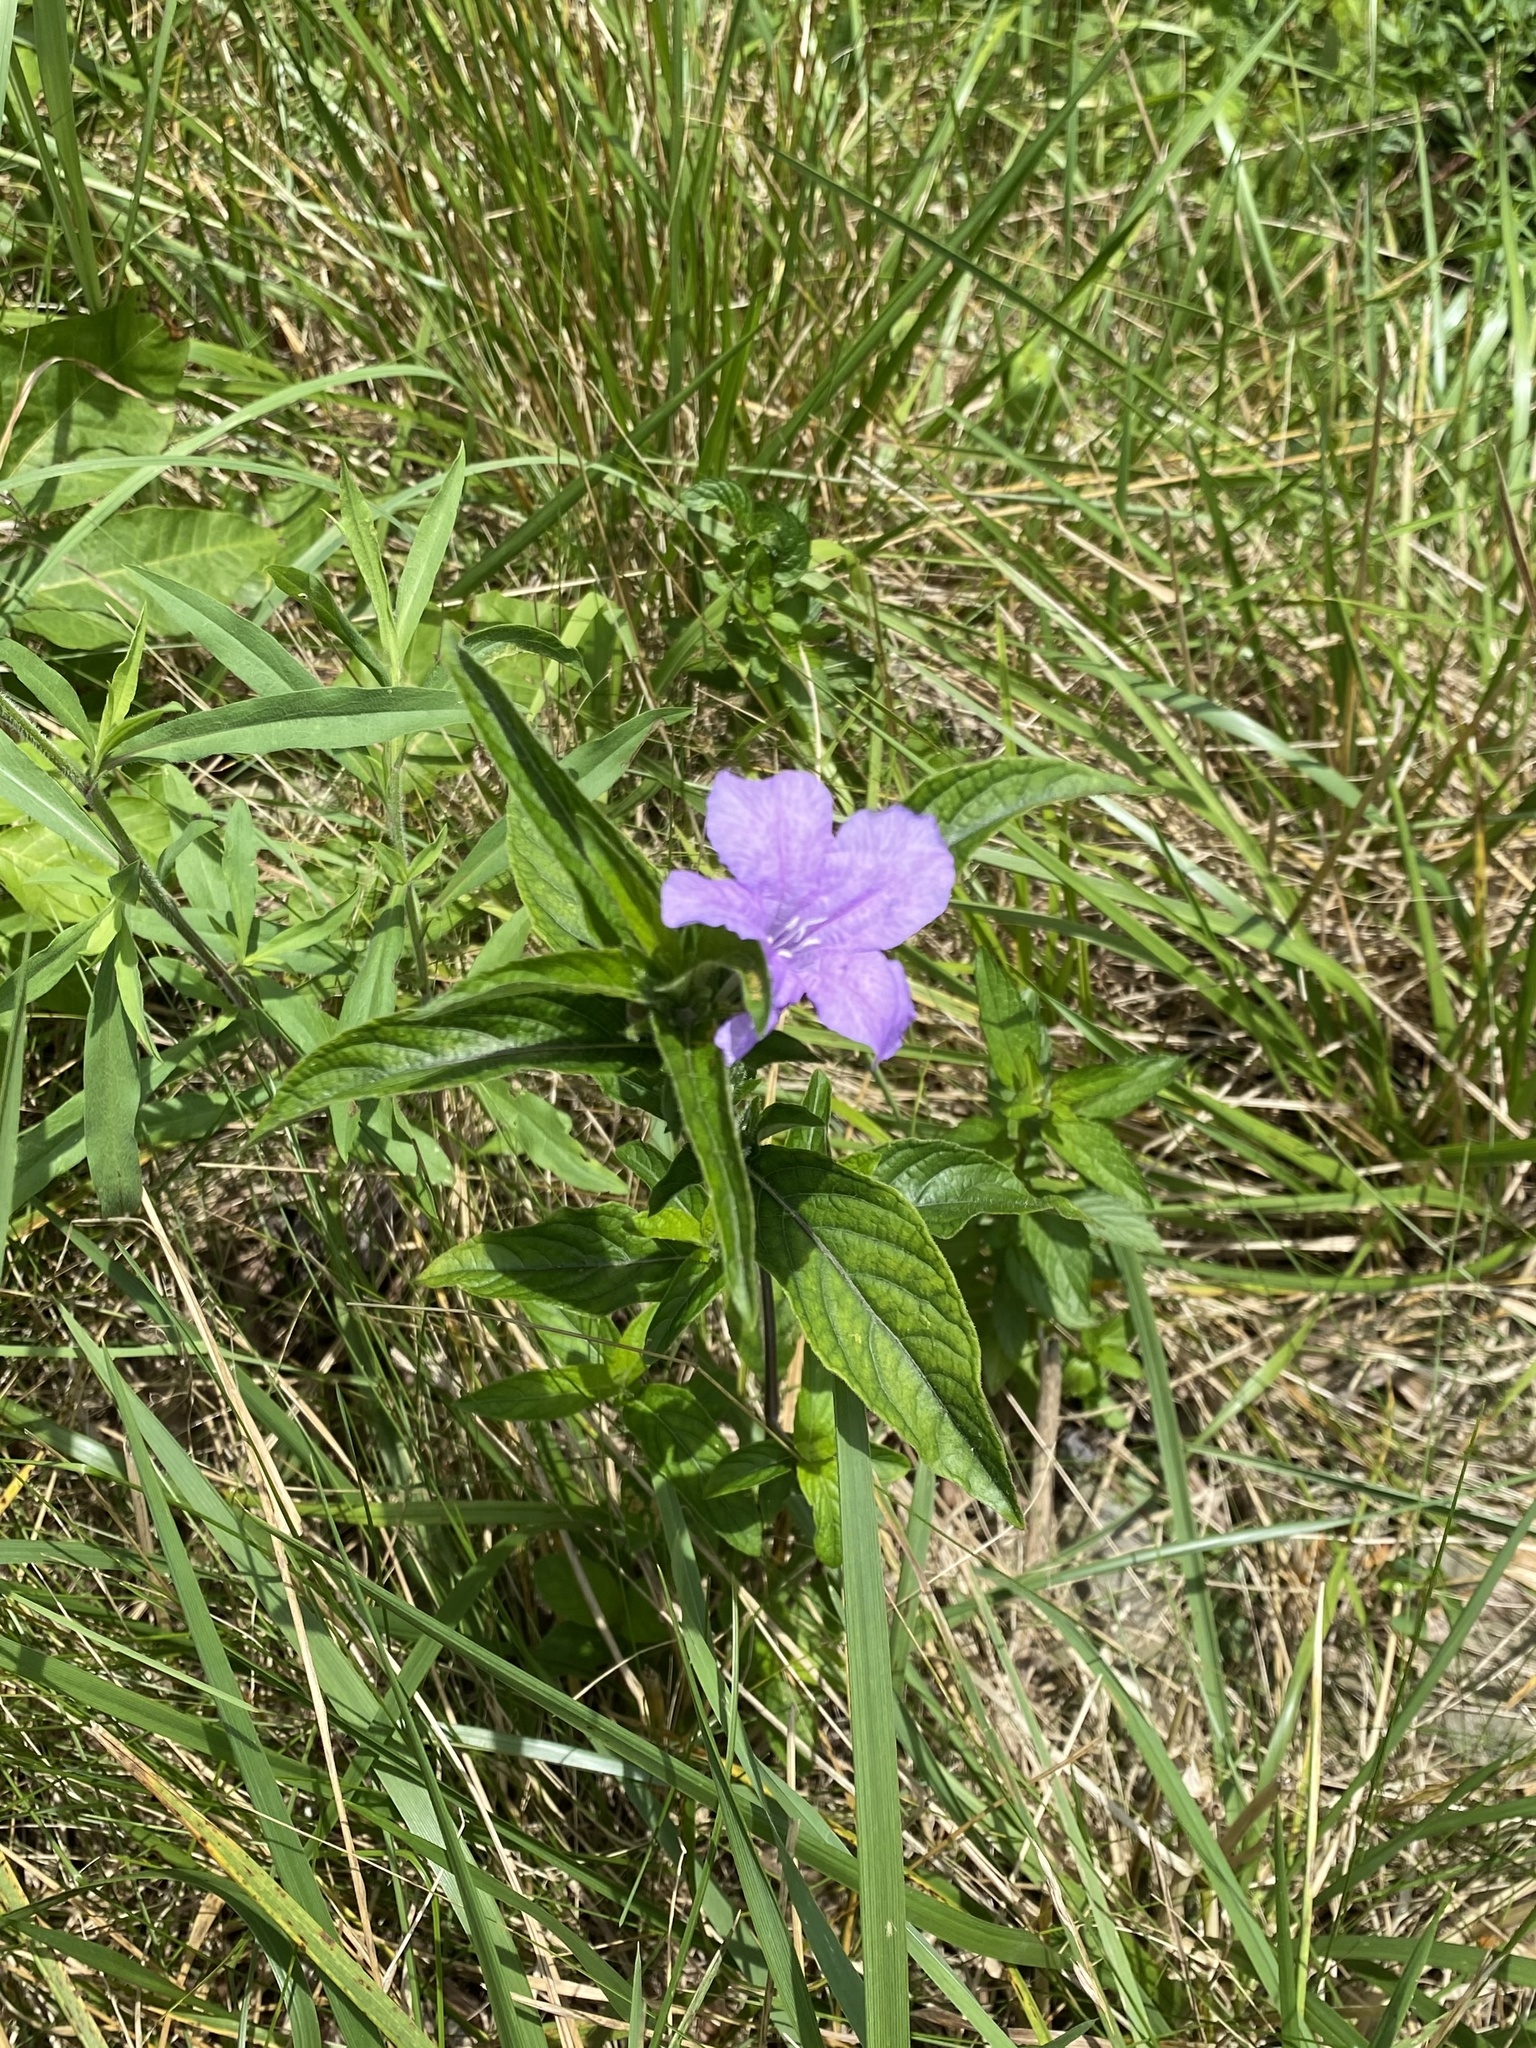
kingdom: Plantae
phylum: Tracheophyta
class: Magnoliopsida
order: Lamiales
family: Acanthaceae
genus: Ruellia
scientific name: Ruellia caroliniensis
